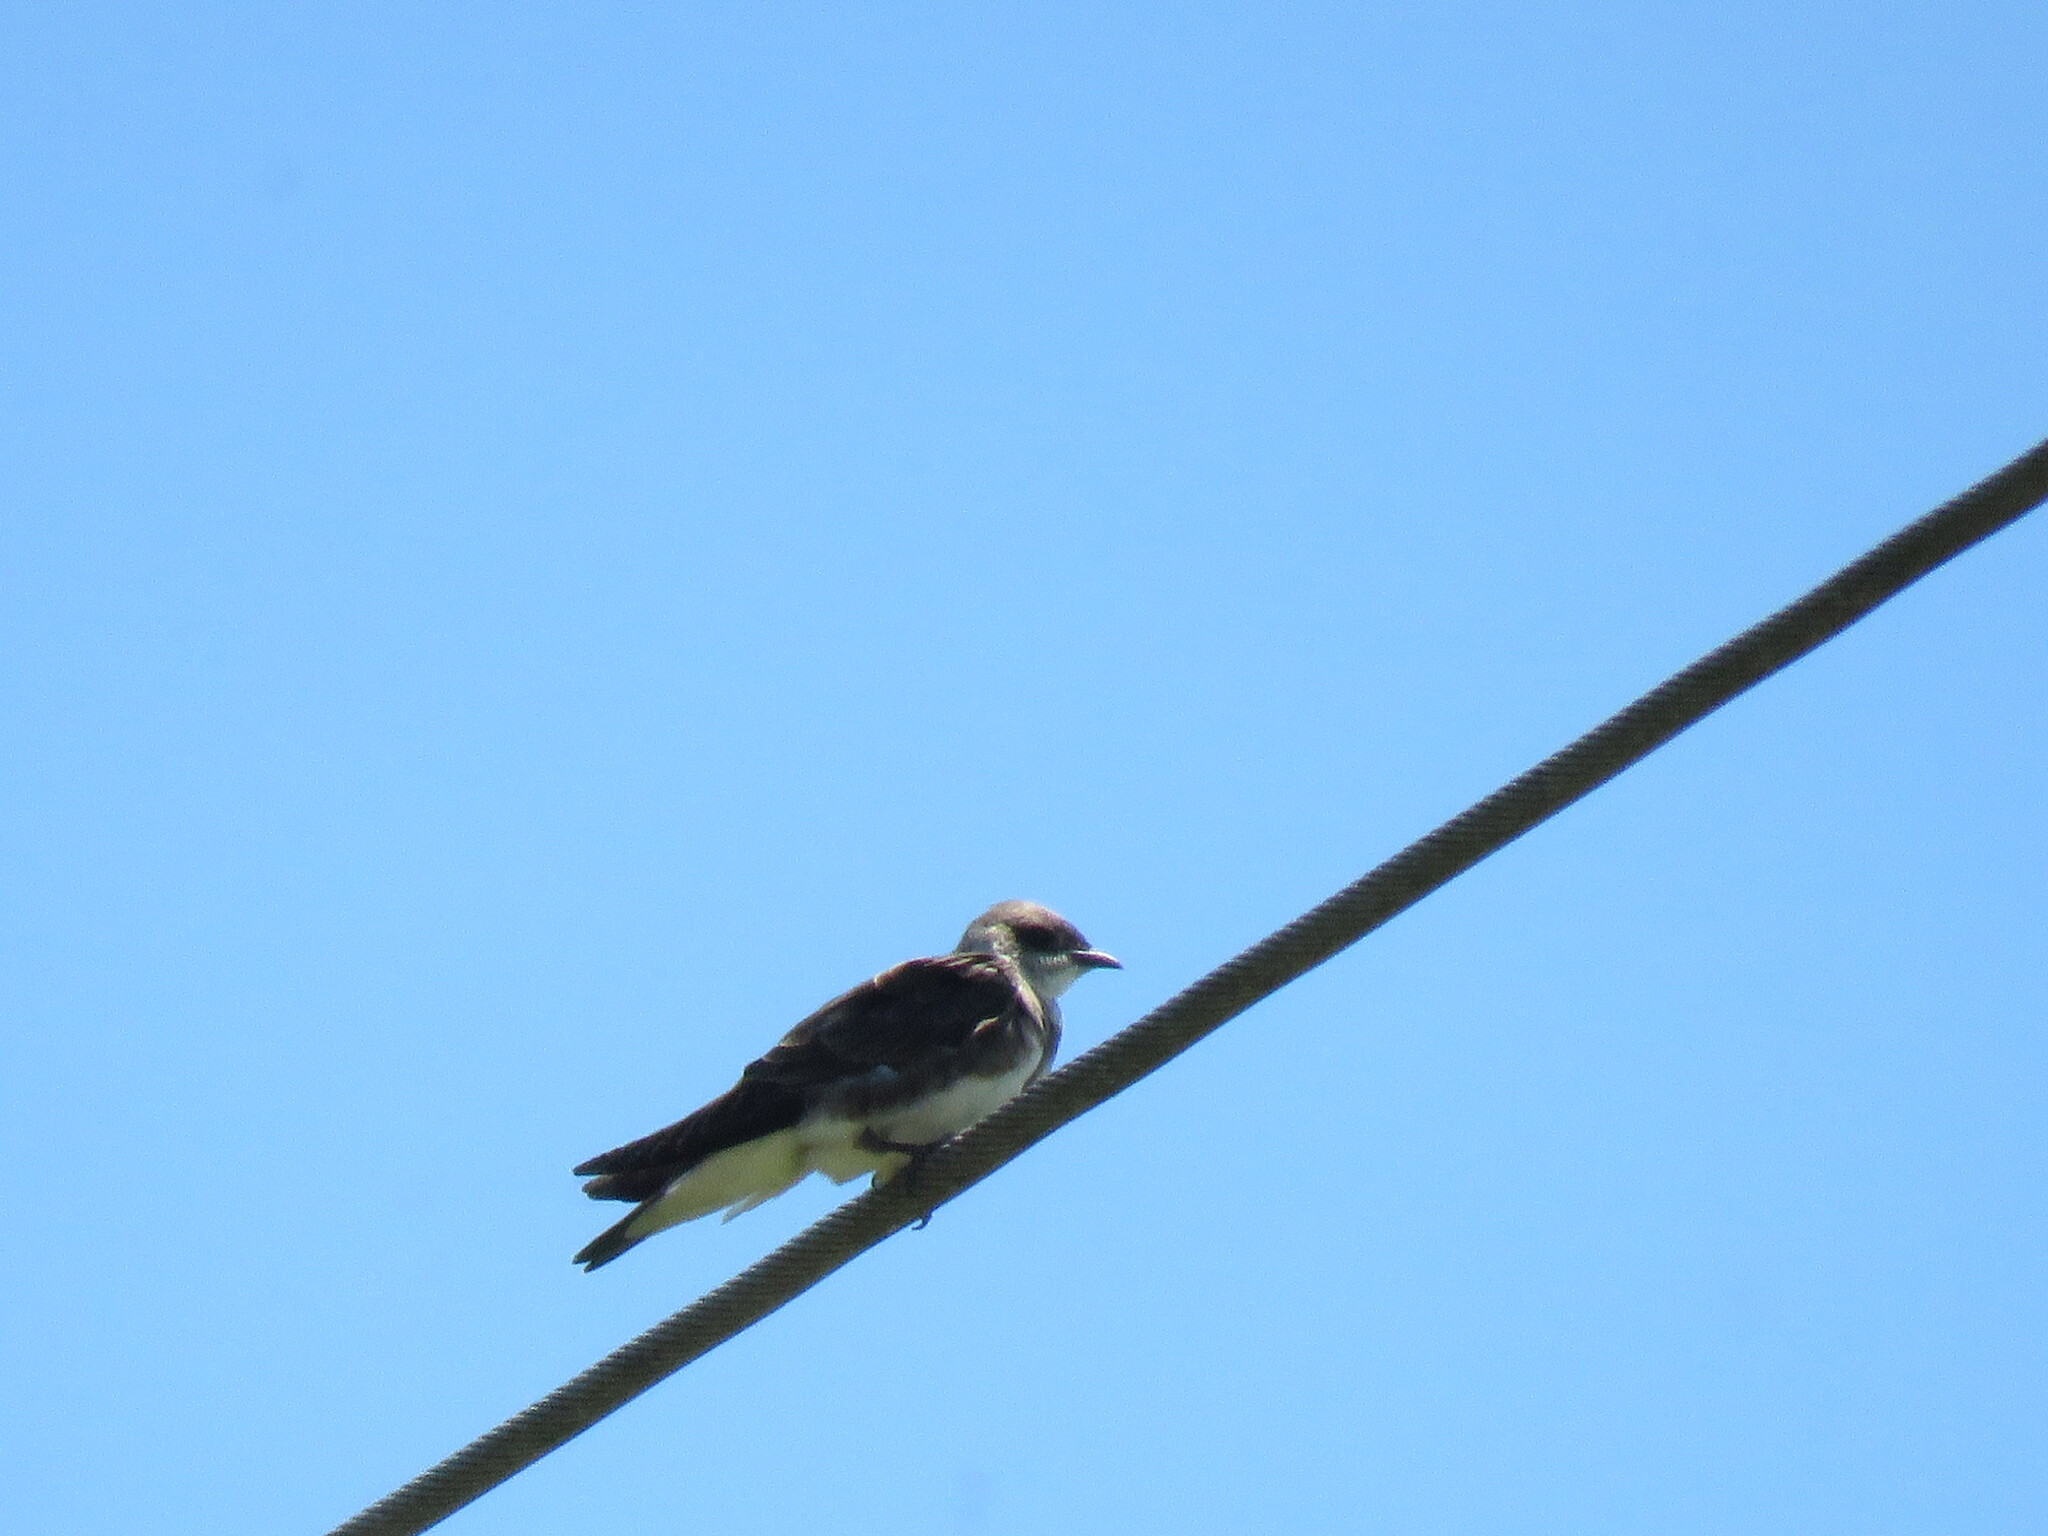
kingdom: Animalia
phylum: Chordata
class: Aves
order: Passeriformes
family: Hirundinidae
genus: Progne
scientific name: Progne tapera
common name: Brown-chested martin
